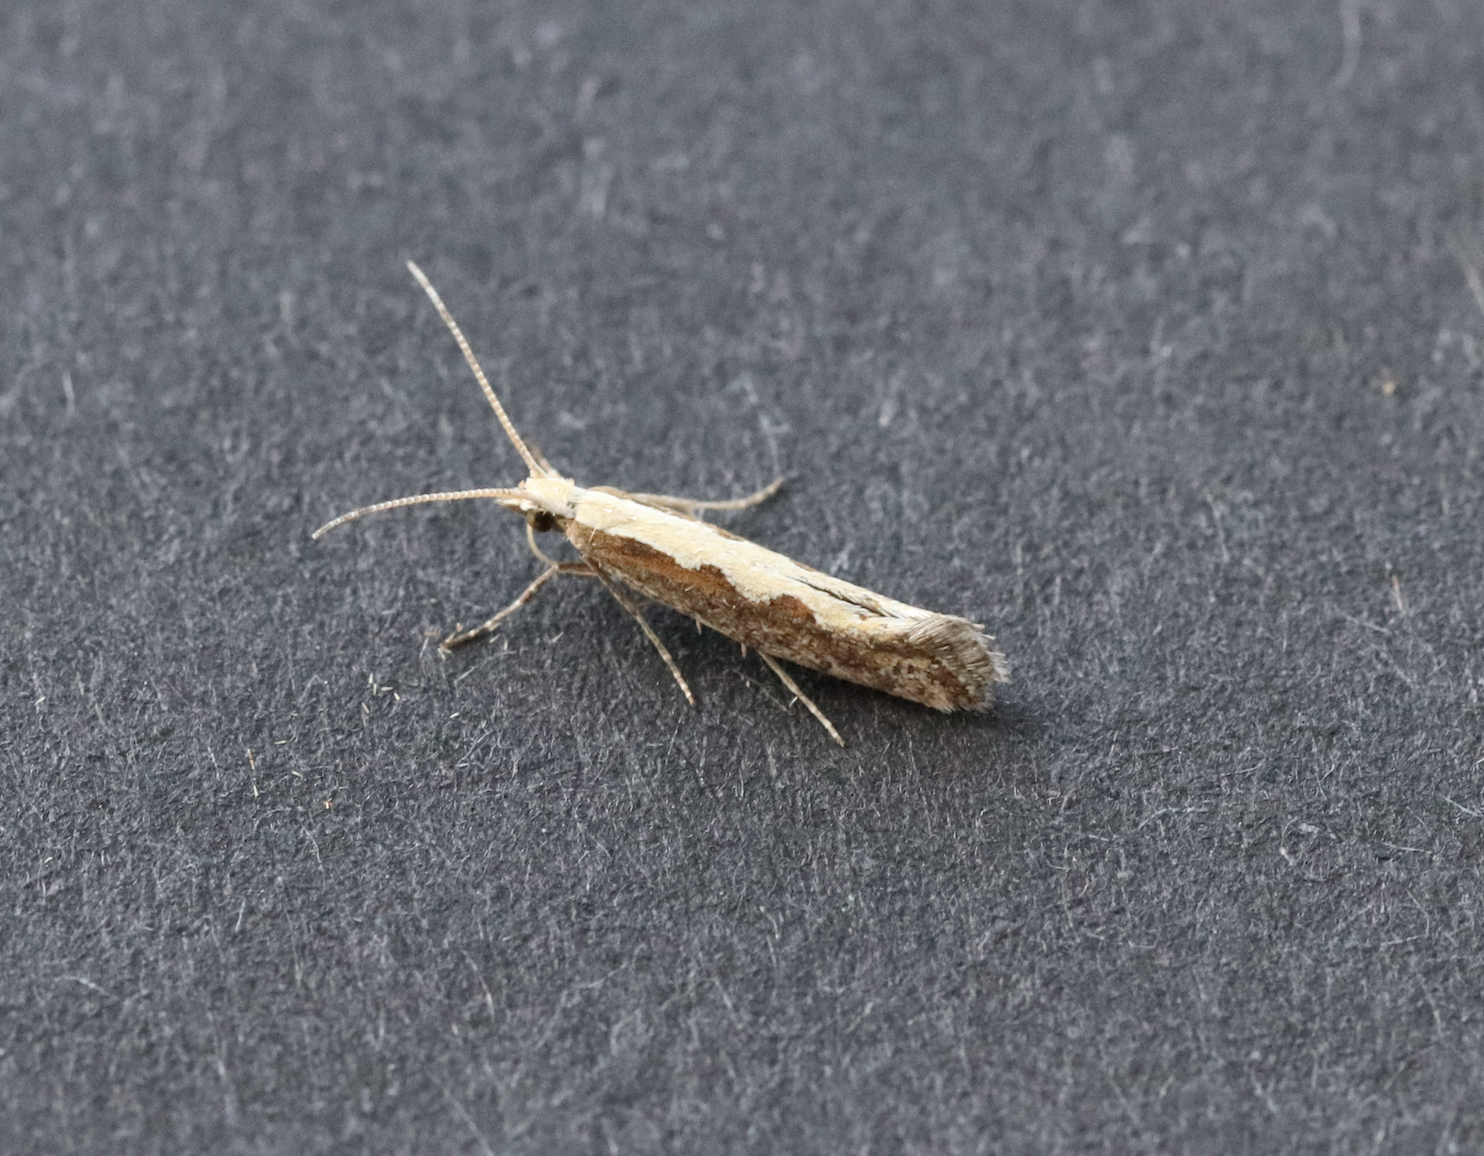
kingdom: Animalia
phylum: Arthropoda
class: Insecta
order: Lepidoptera
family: Plutellidae
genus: Plutella
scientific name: Plutella xylostella
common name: Diamond-back moth
